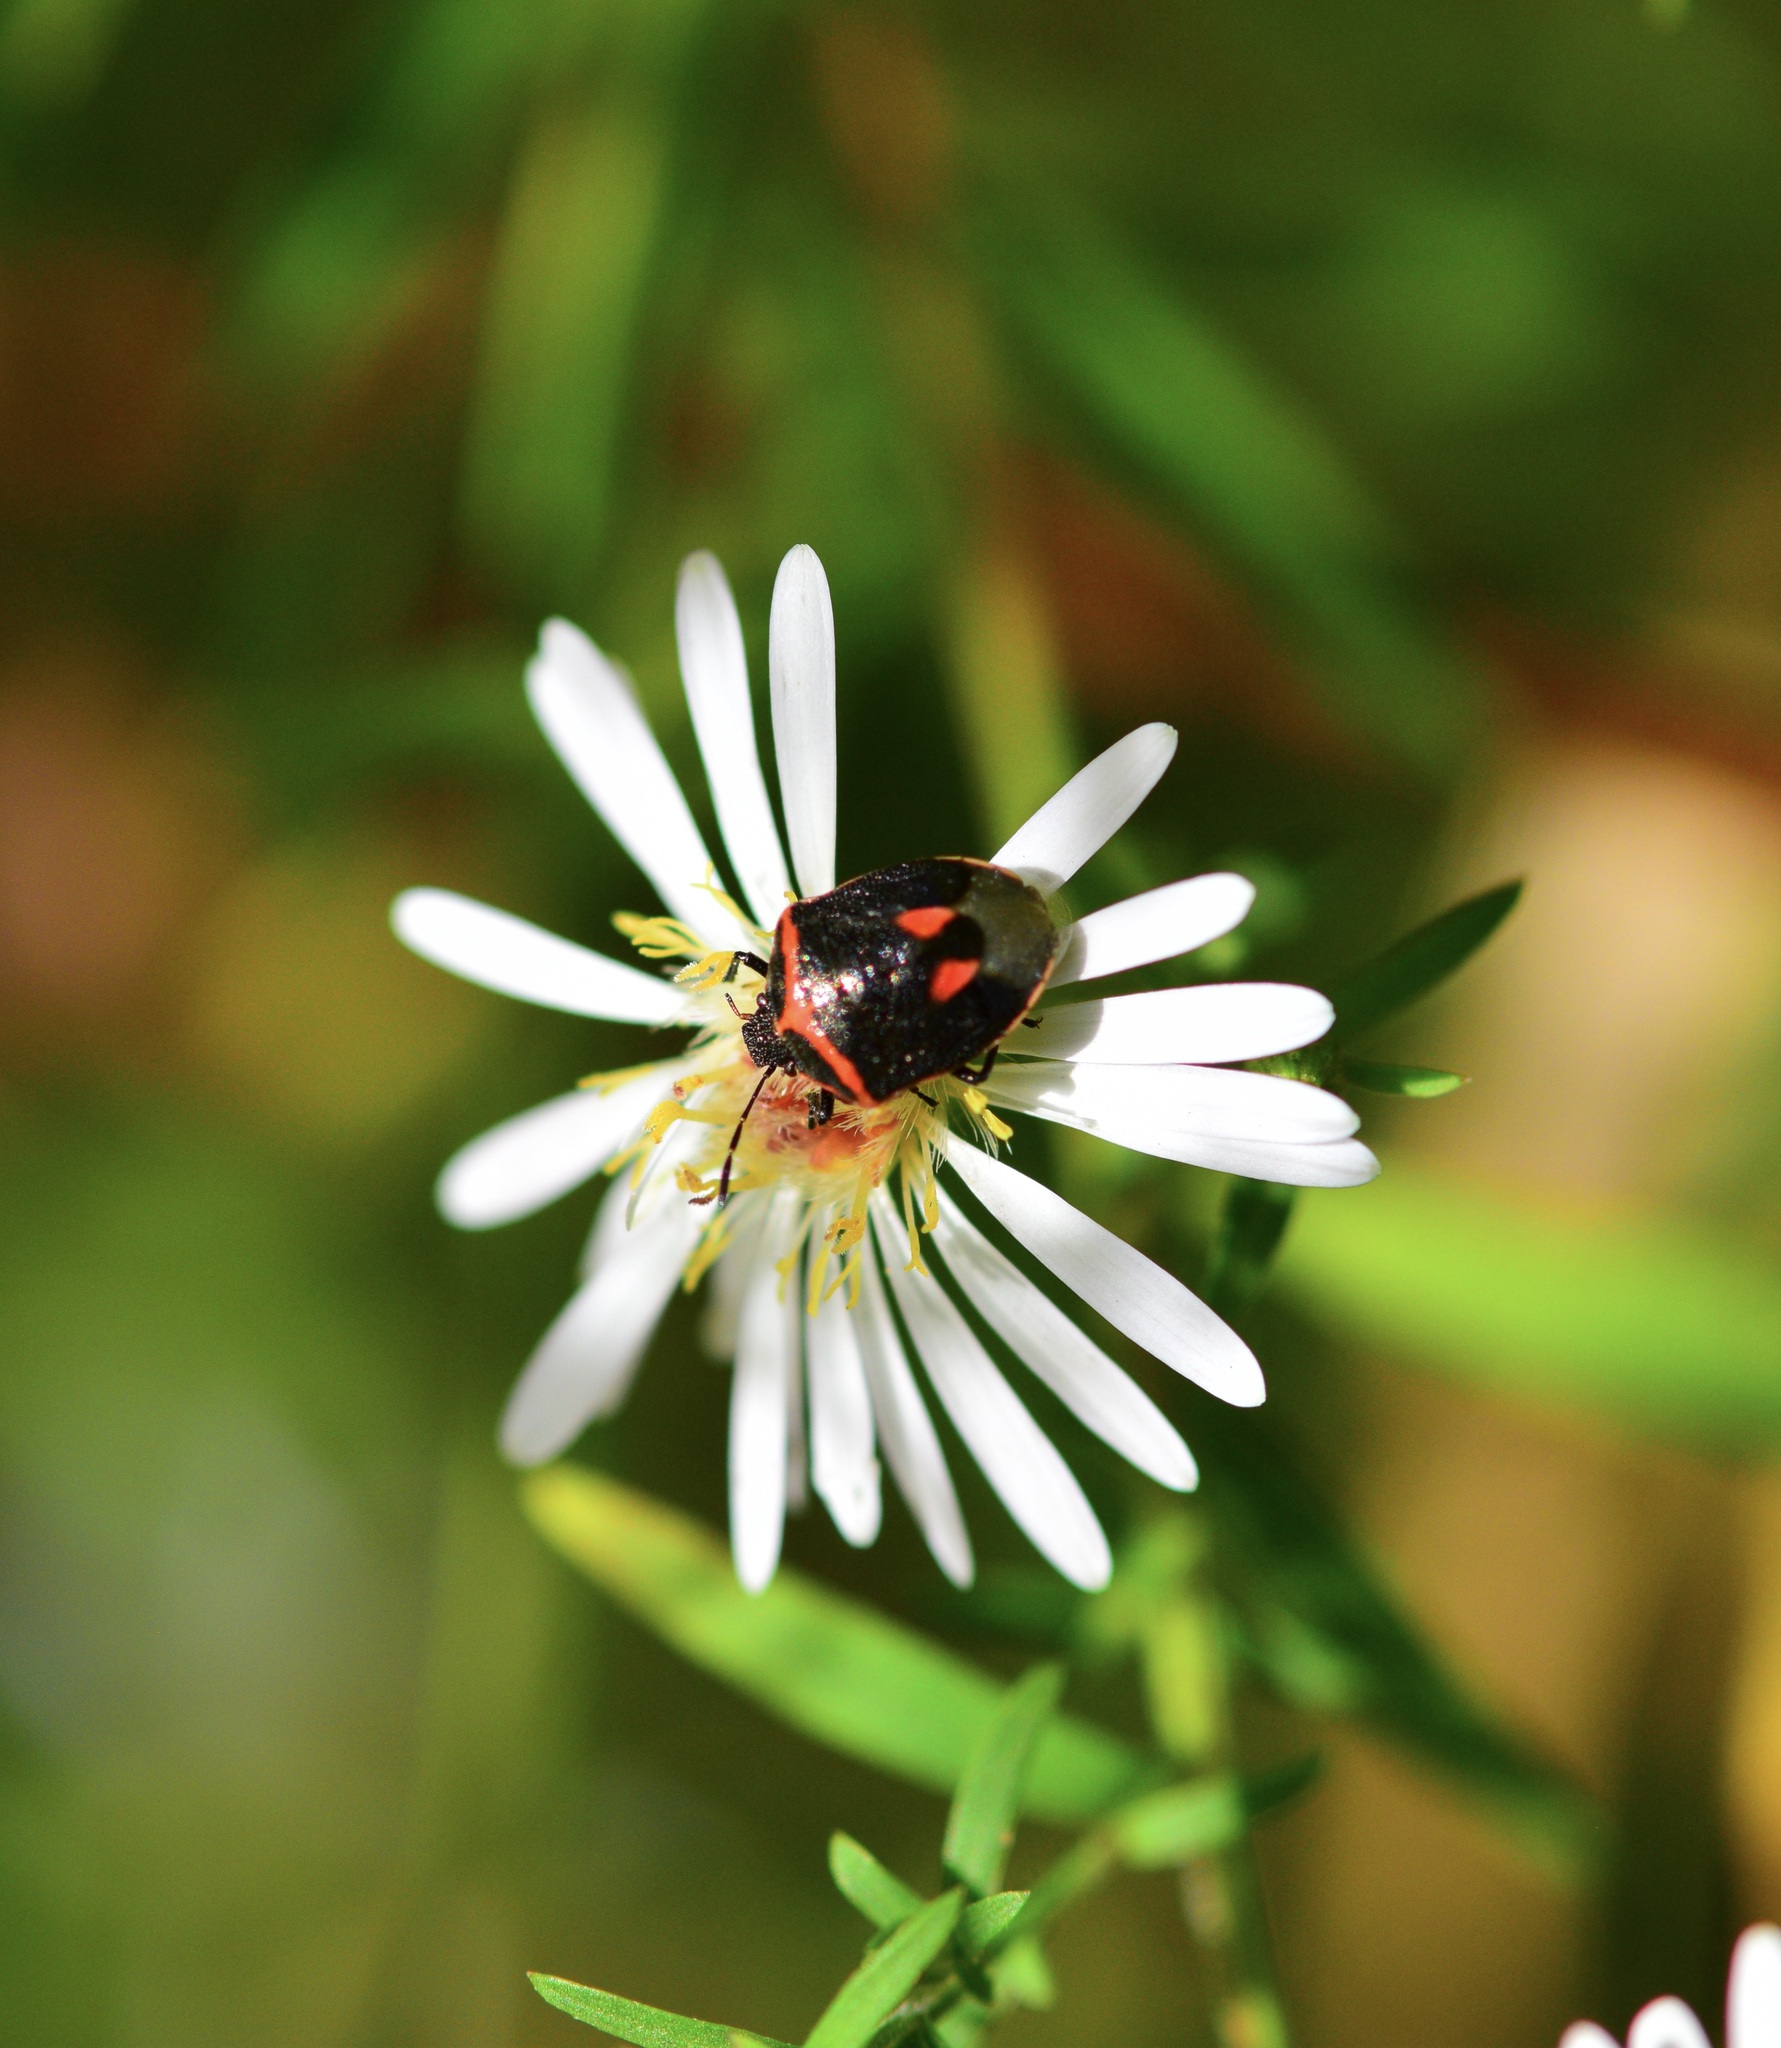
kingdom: Animalia
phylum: Arthropoda
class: Insecta
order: Hemiptera
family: Pentatomidae
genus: Cosmopepla
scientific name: Cosmopepla lintneriana
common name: Twice-stabbed stink bug
